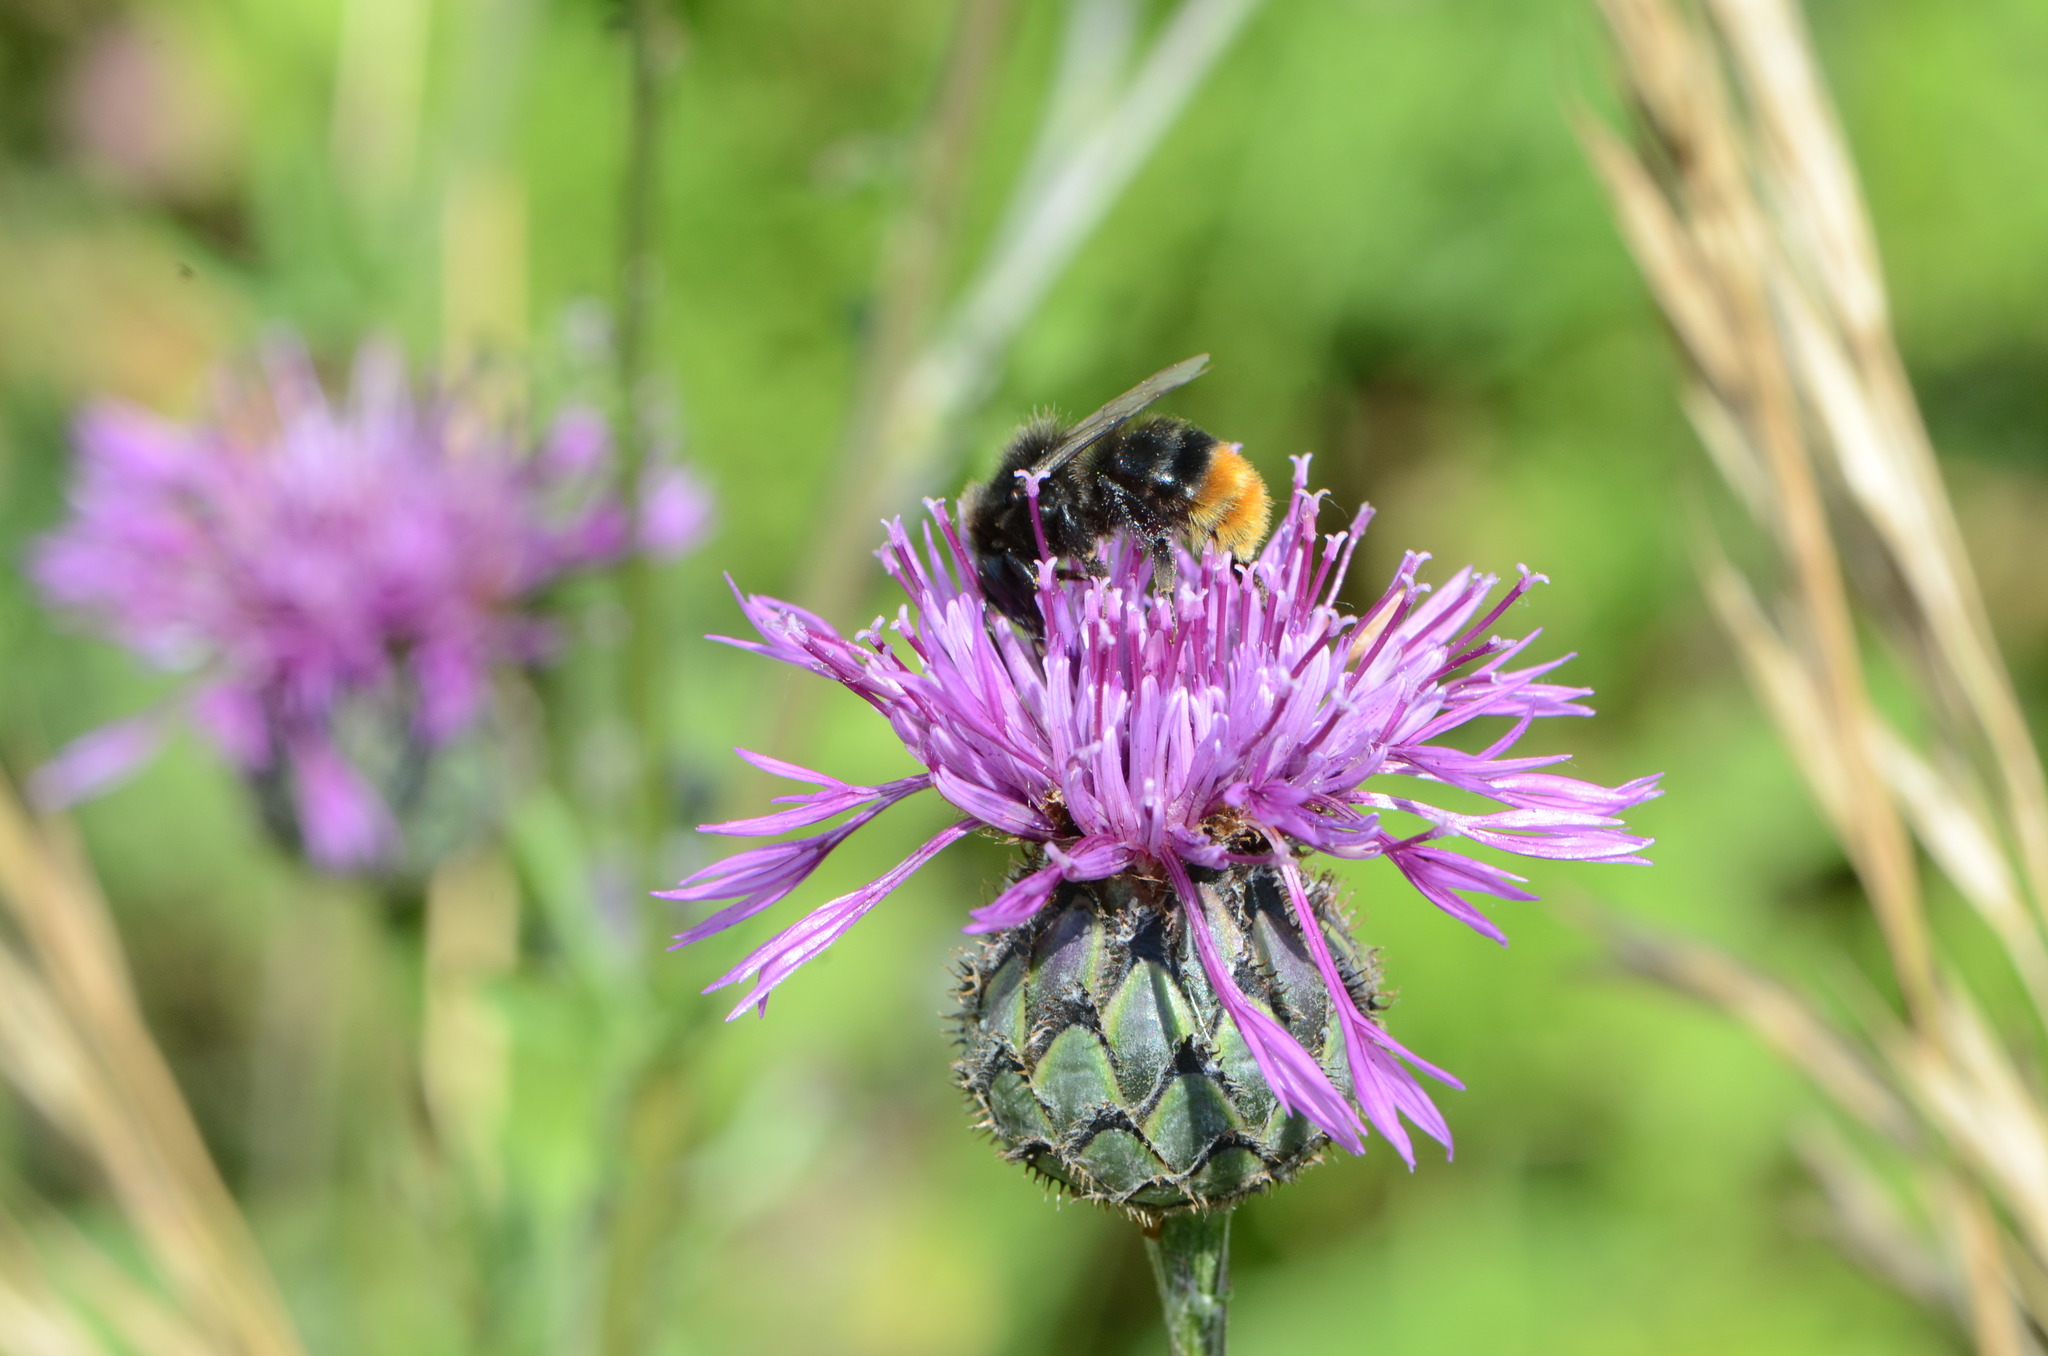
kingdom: Plantae
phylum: Tracheophyta
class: Magnoliopsida
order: Asterales
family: Asteraceae
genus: Centaurea
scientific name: Centaurea scabiosa
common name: Greater knapweed
